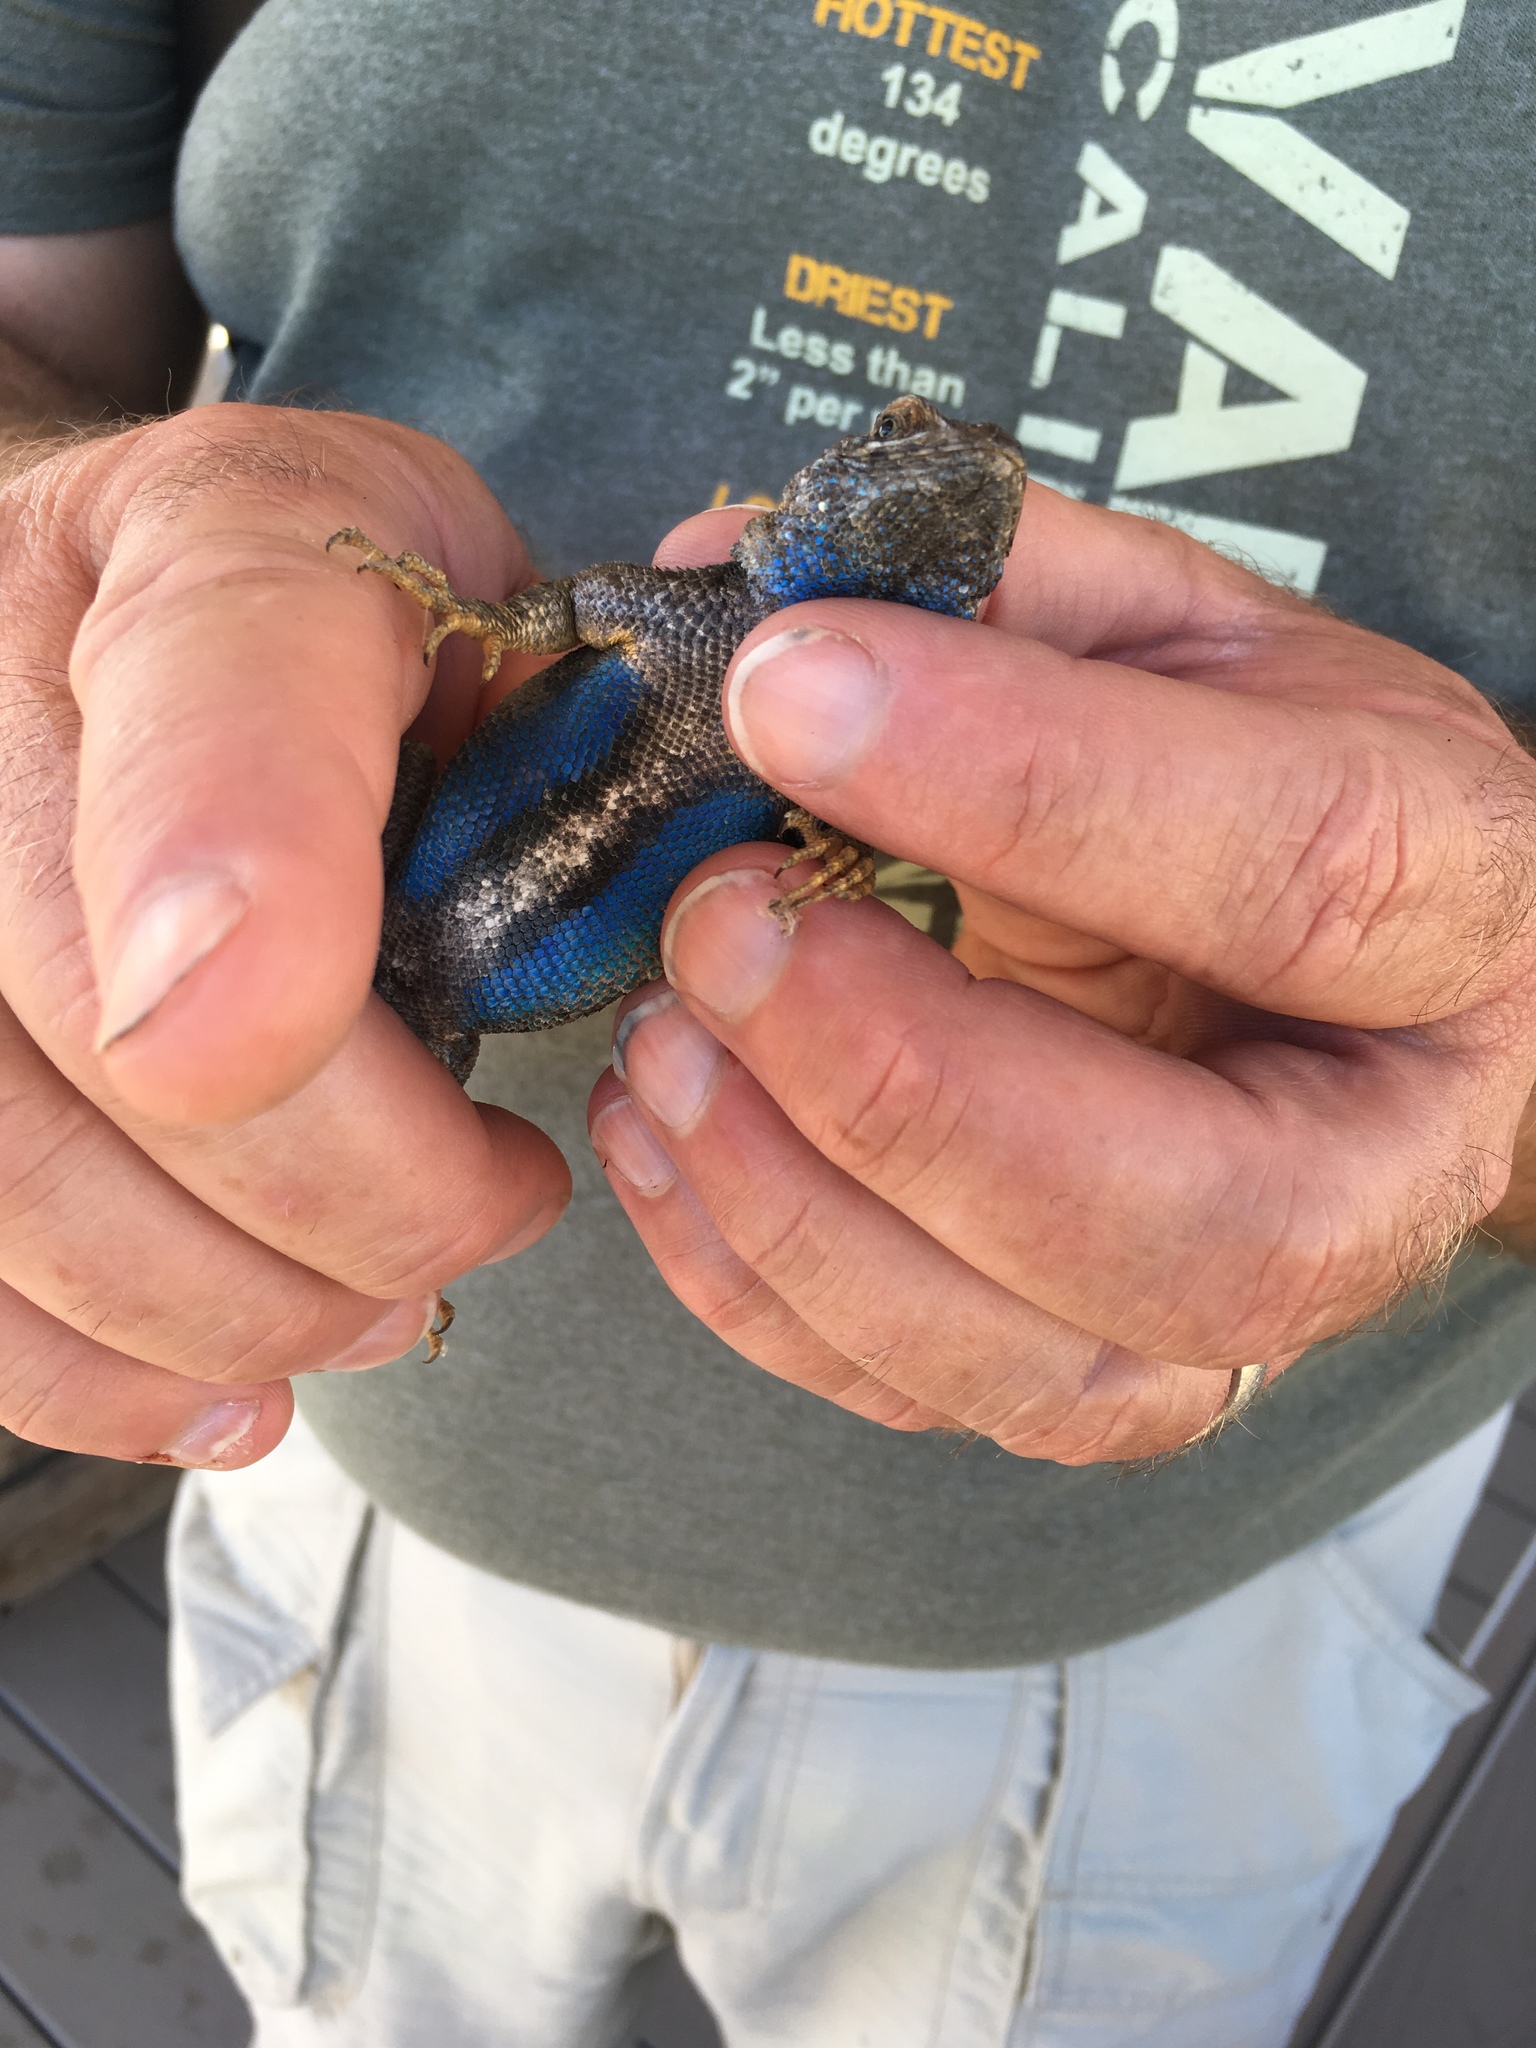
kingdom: Animalia
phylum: Chordata
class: Squamata
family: Phrynosomatidae
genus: Sceloporus
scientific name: Sceloporus occidentalis
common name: Western fence lizard
